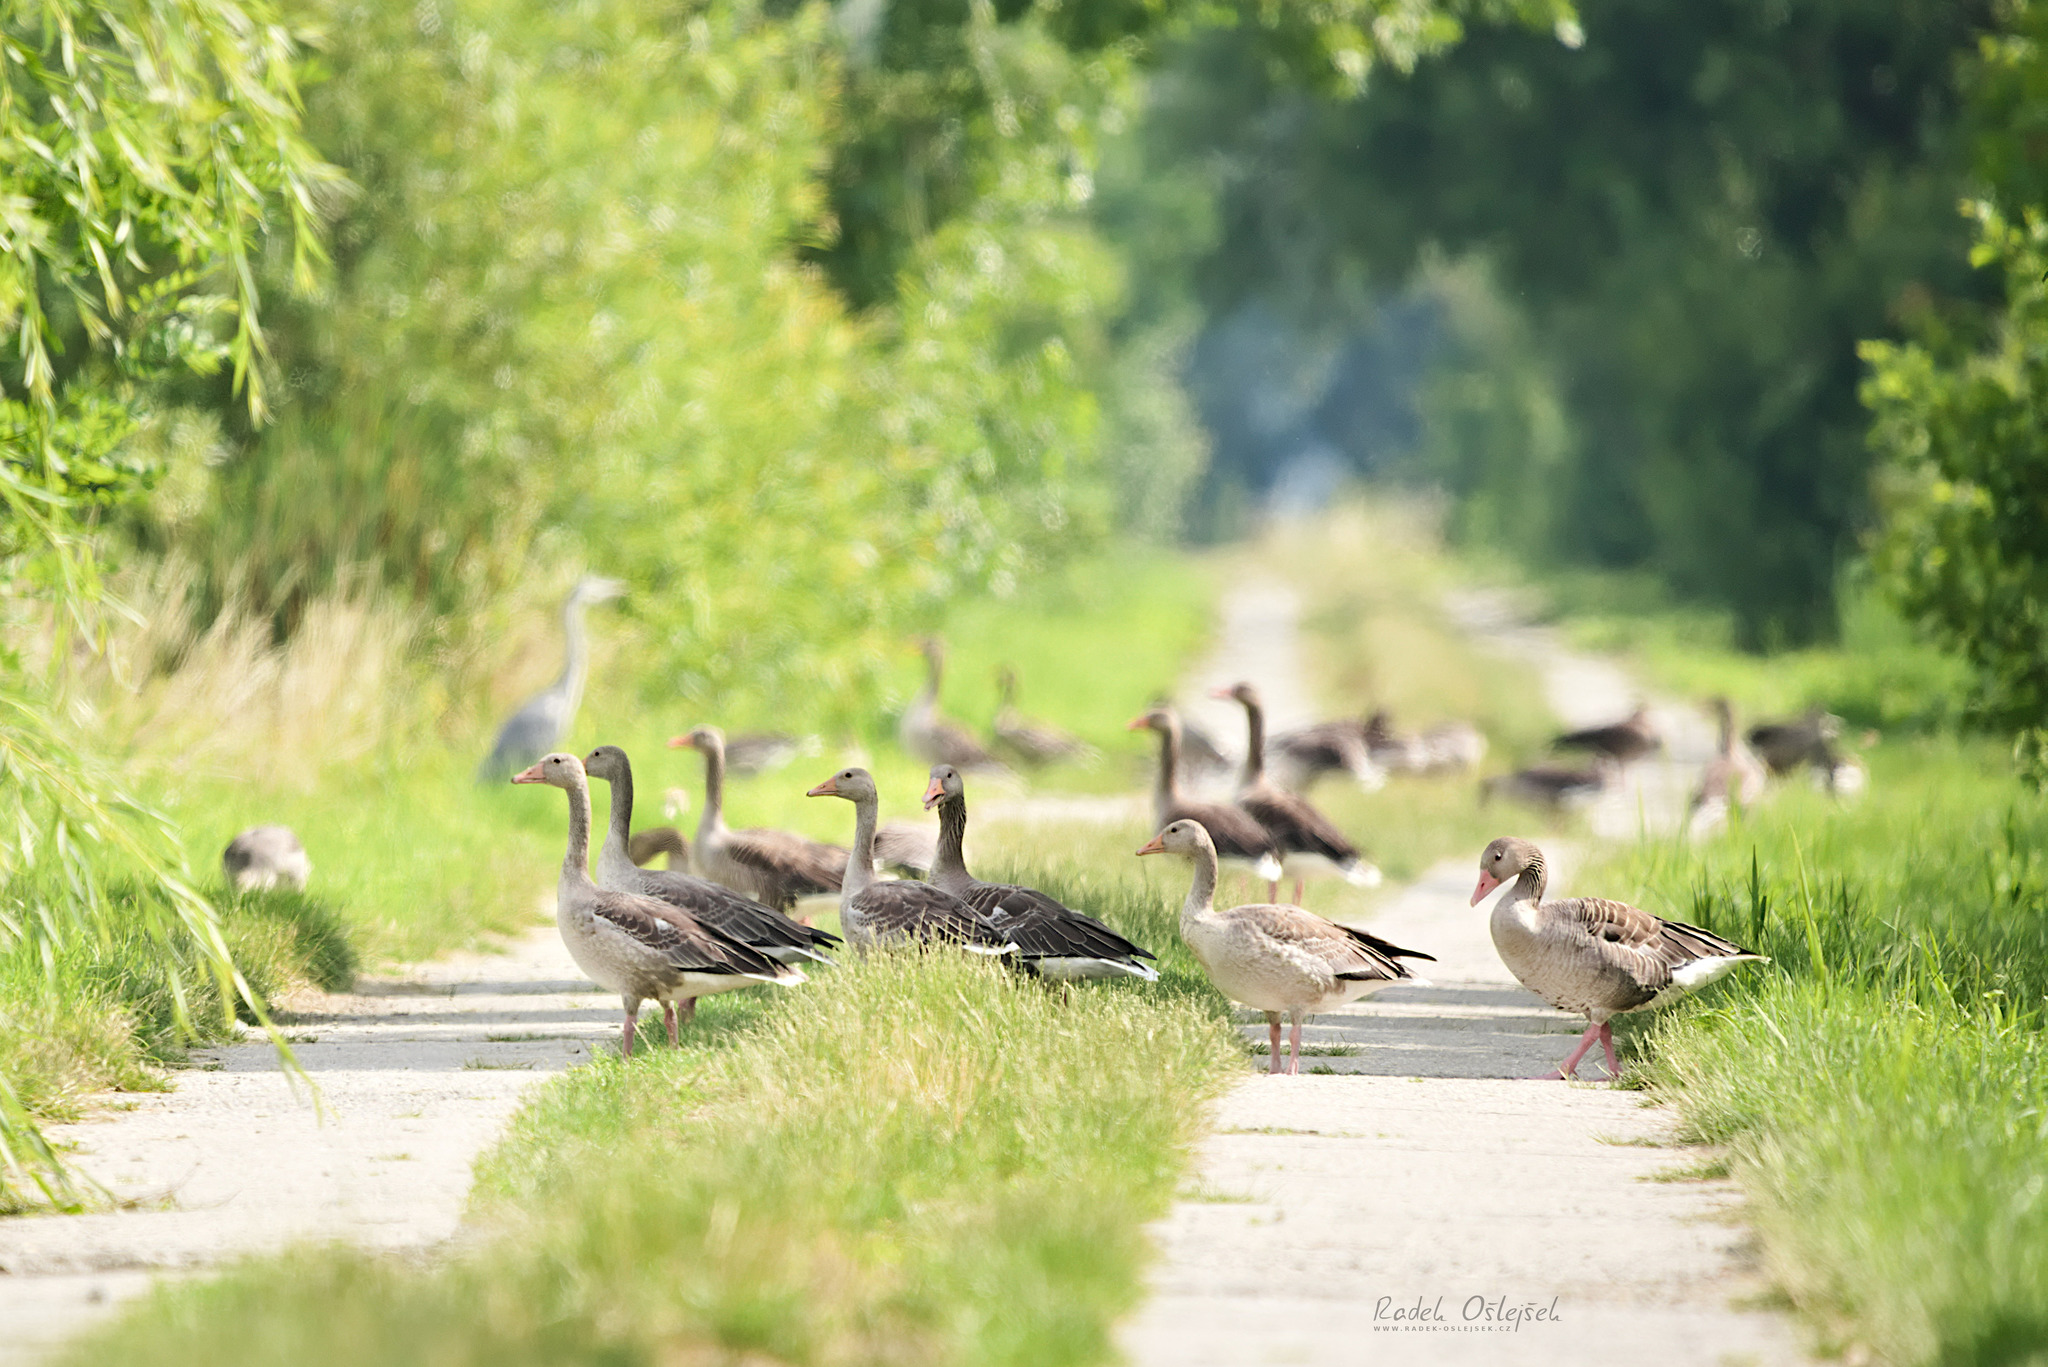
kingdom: Animalia
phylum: Chordata
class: Aves
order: Anseriformes
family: Anatidae
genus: Anser
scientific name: Anser anser
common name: Greylag goose
